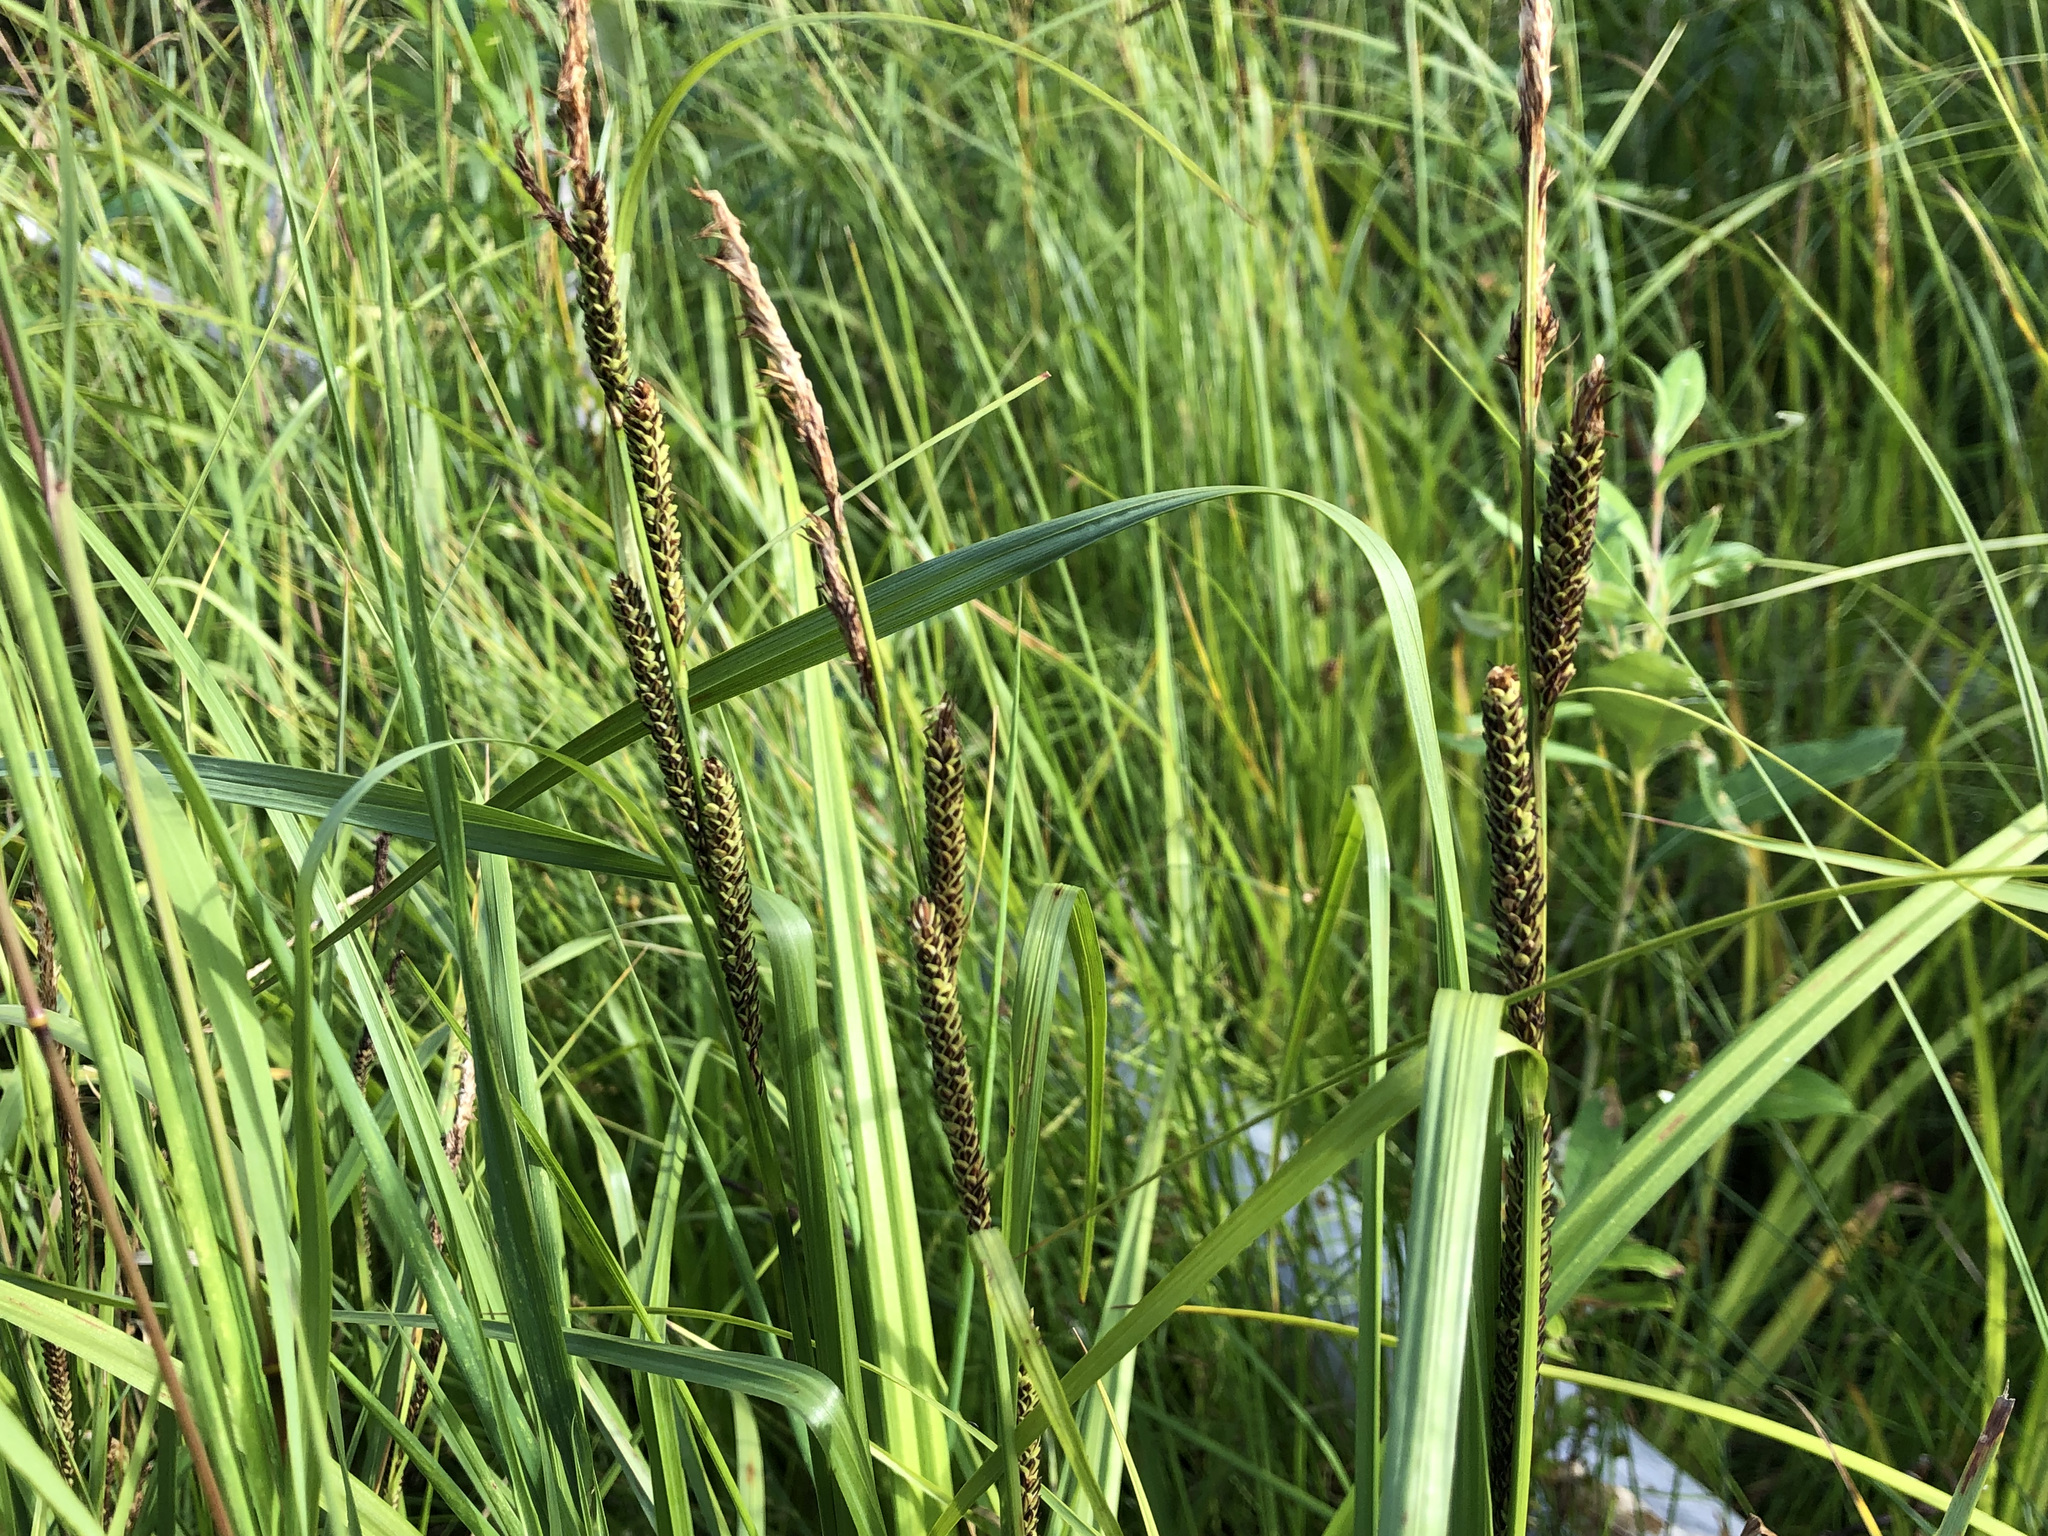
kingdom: Plantae
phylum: Tracheophyta
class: Liliopsida
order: Poales
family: Cyperaceae
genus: Carex
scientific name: Carex aquatilis
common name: Water sedge
